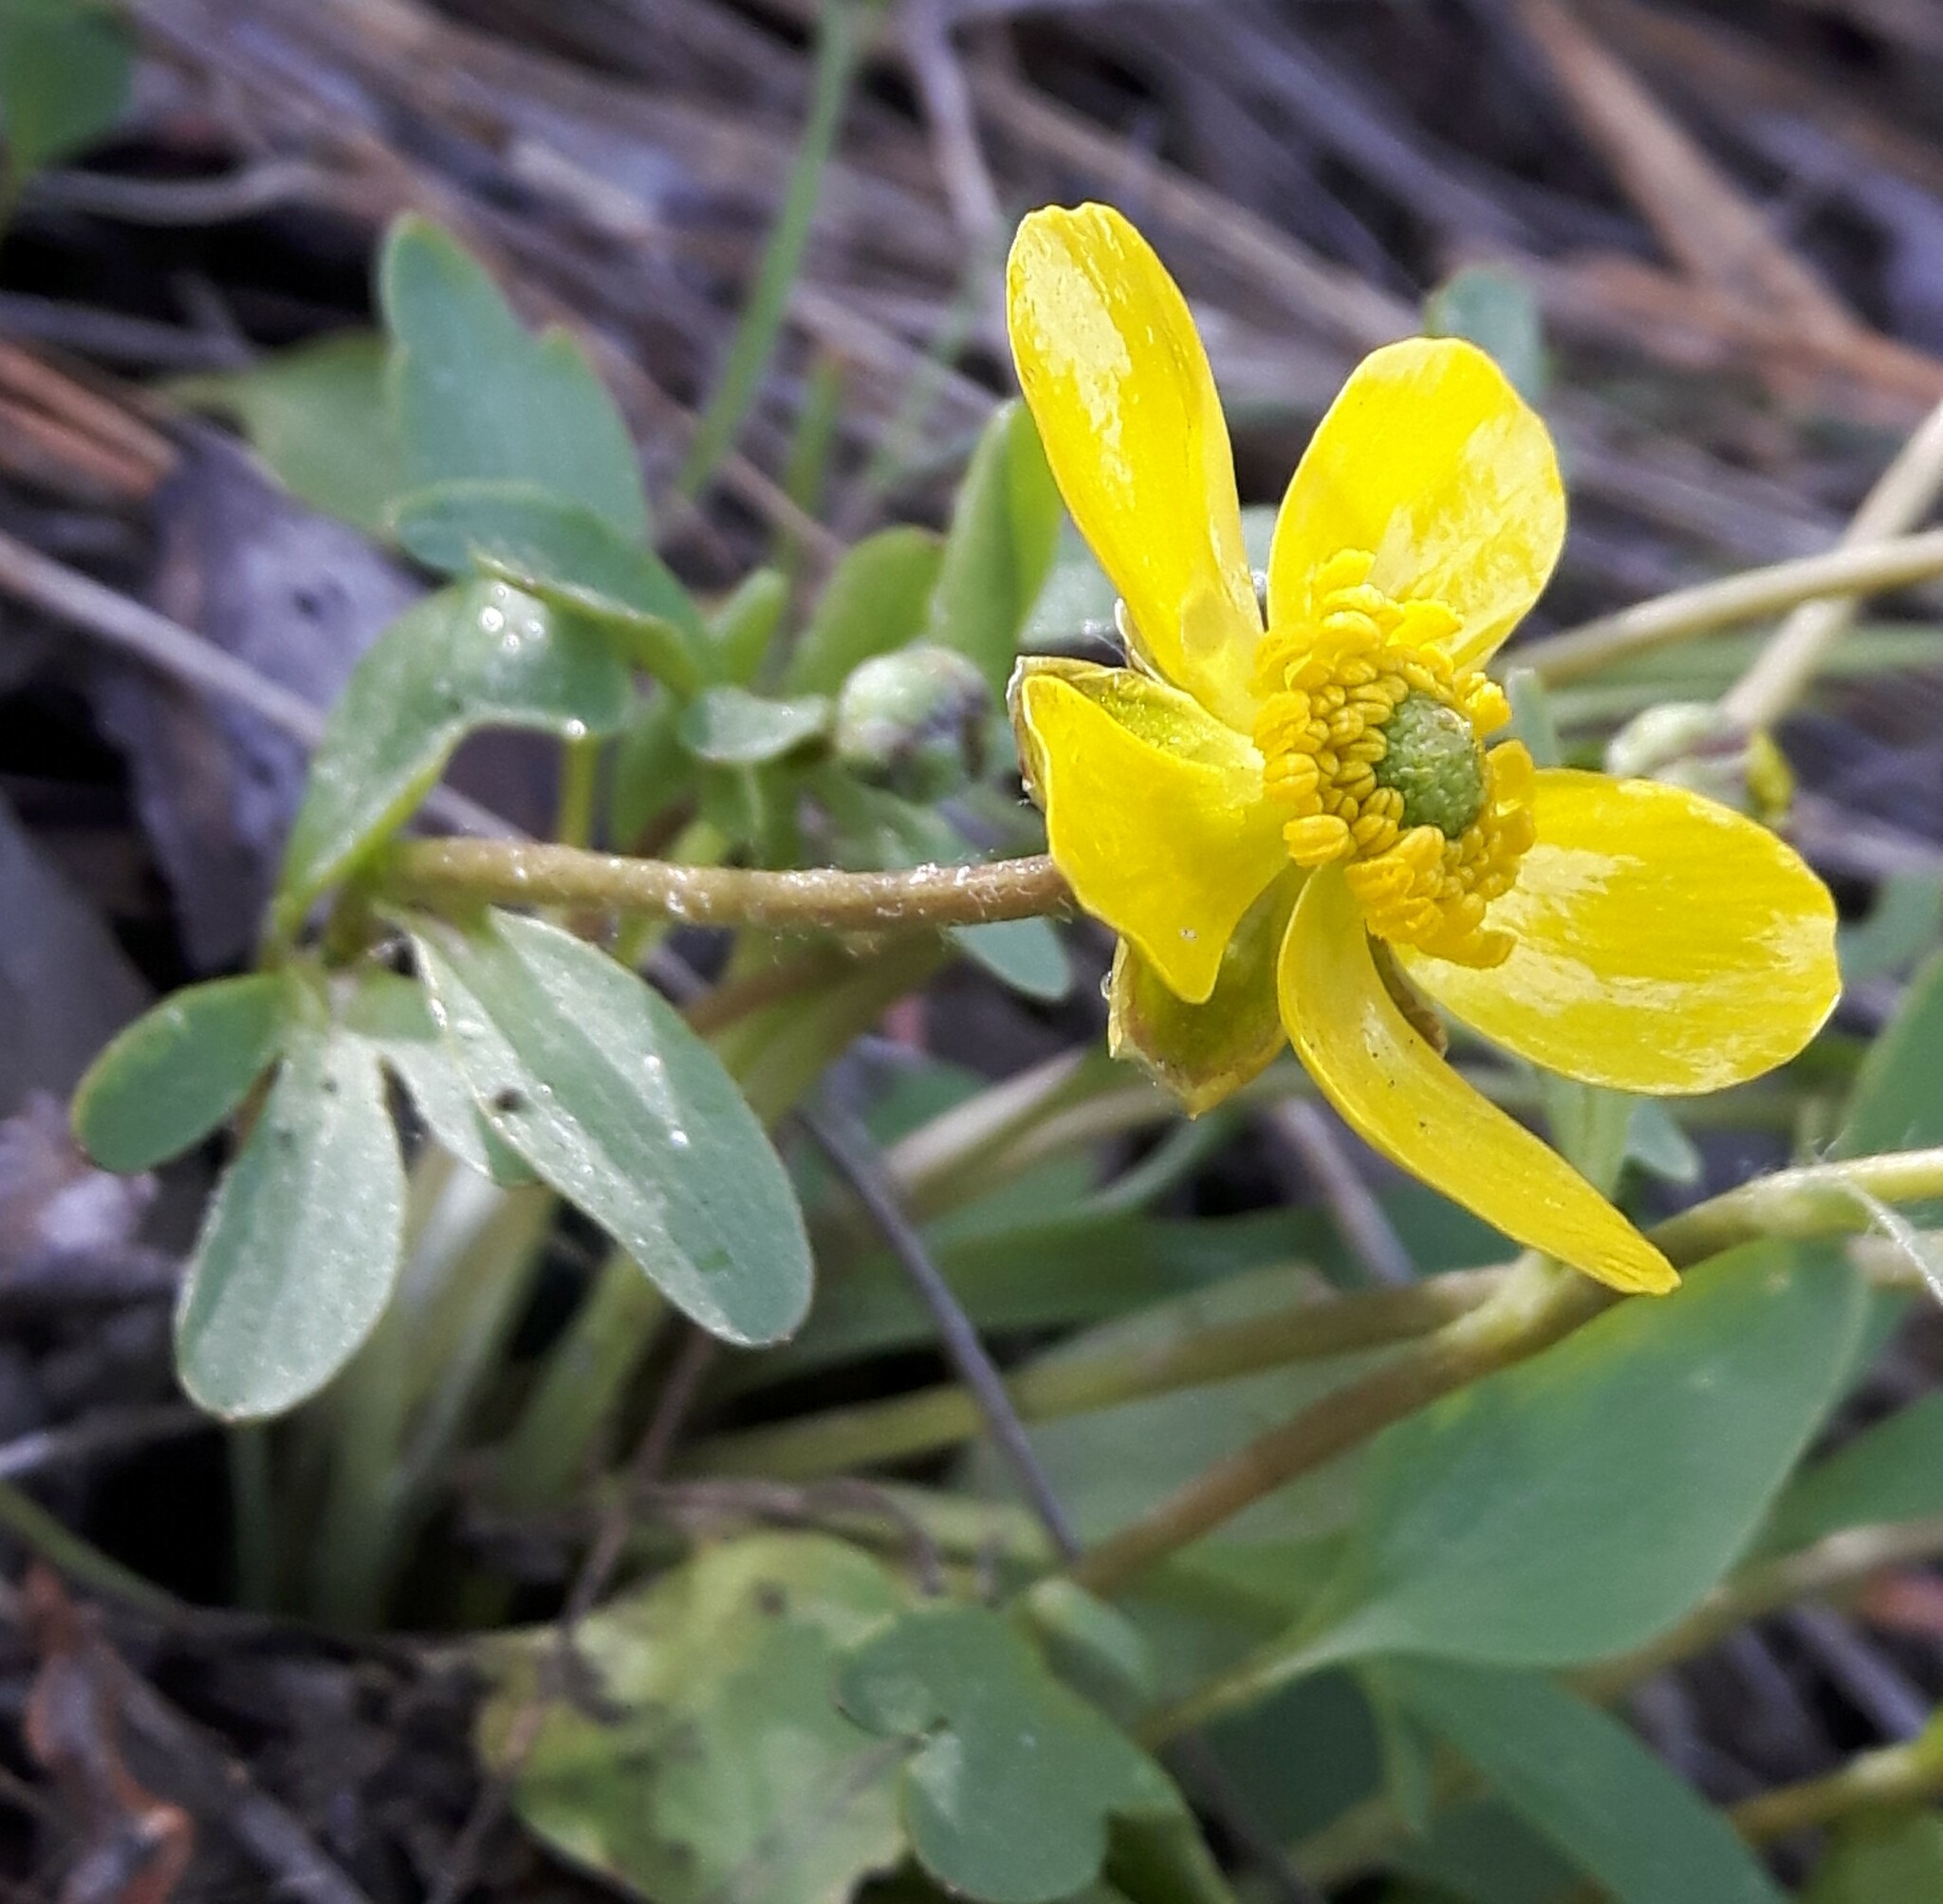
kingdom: Plantae
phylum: Tracheophyta
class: Magnoliopsida
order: Ranunculales
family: Ranunculaceae
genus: Ranunculus
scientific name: Ranunculus glaberrimus
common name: Sagebrush buttercup
